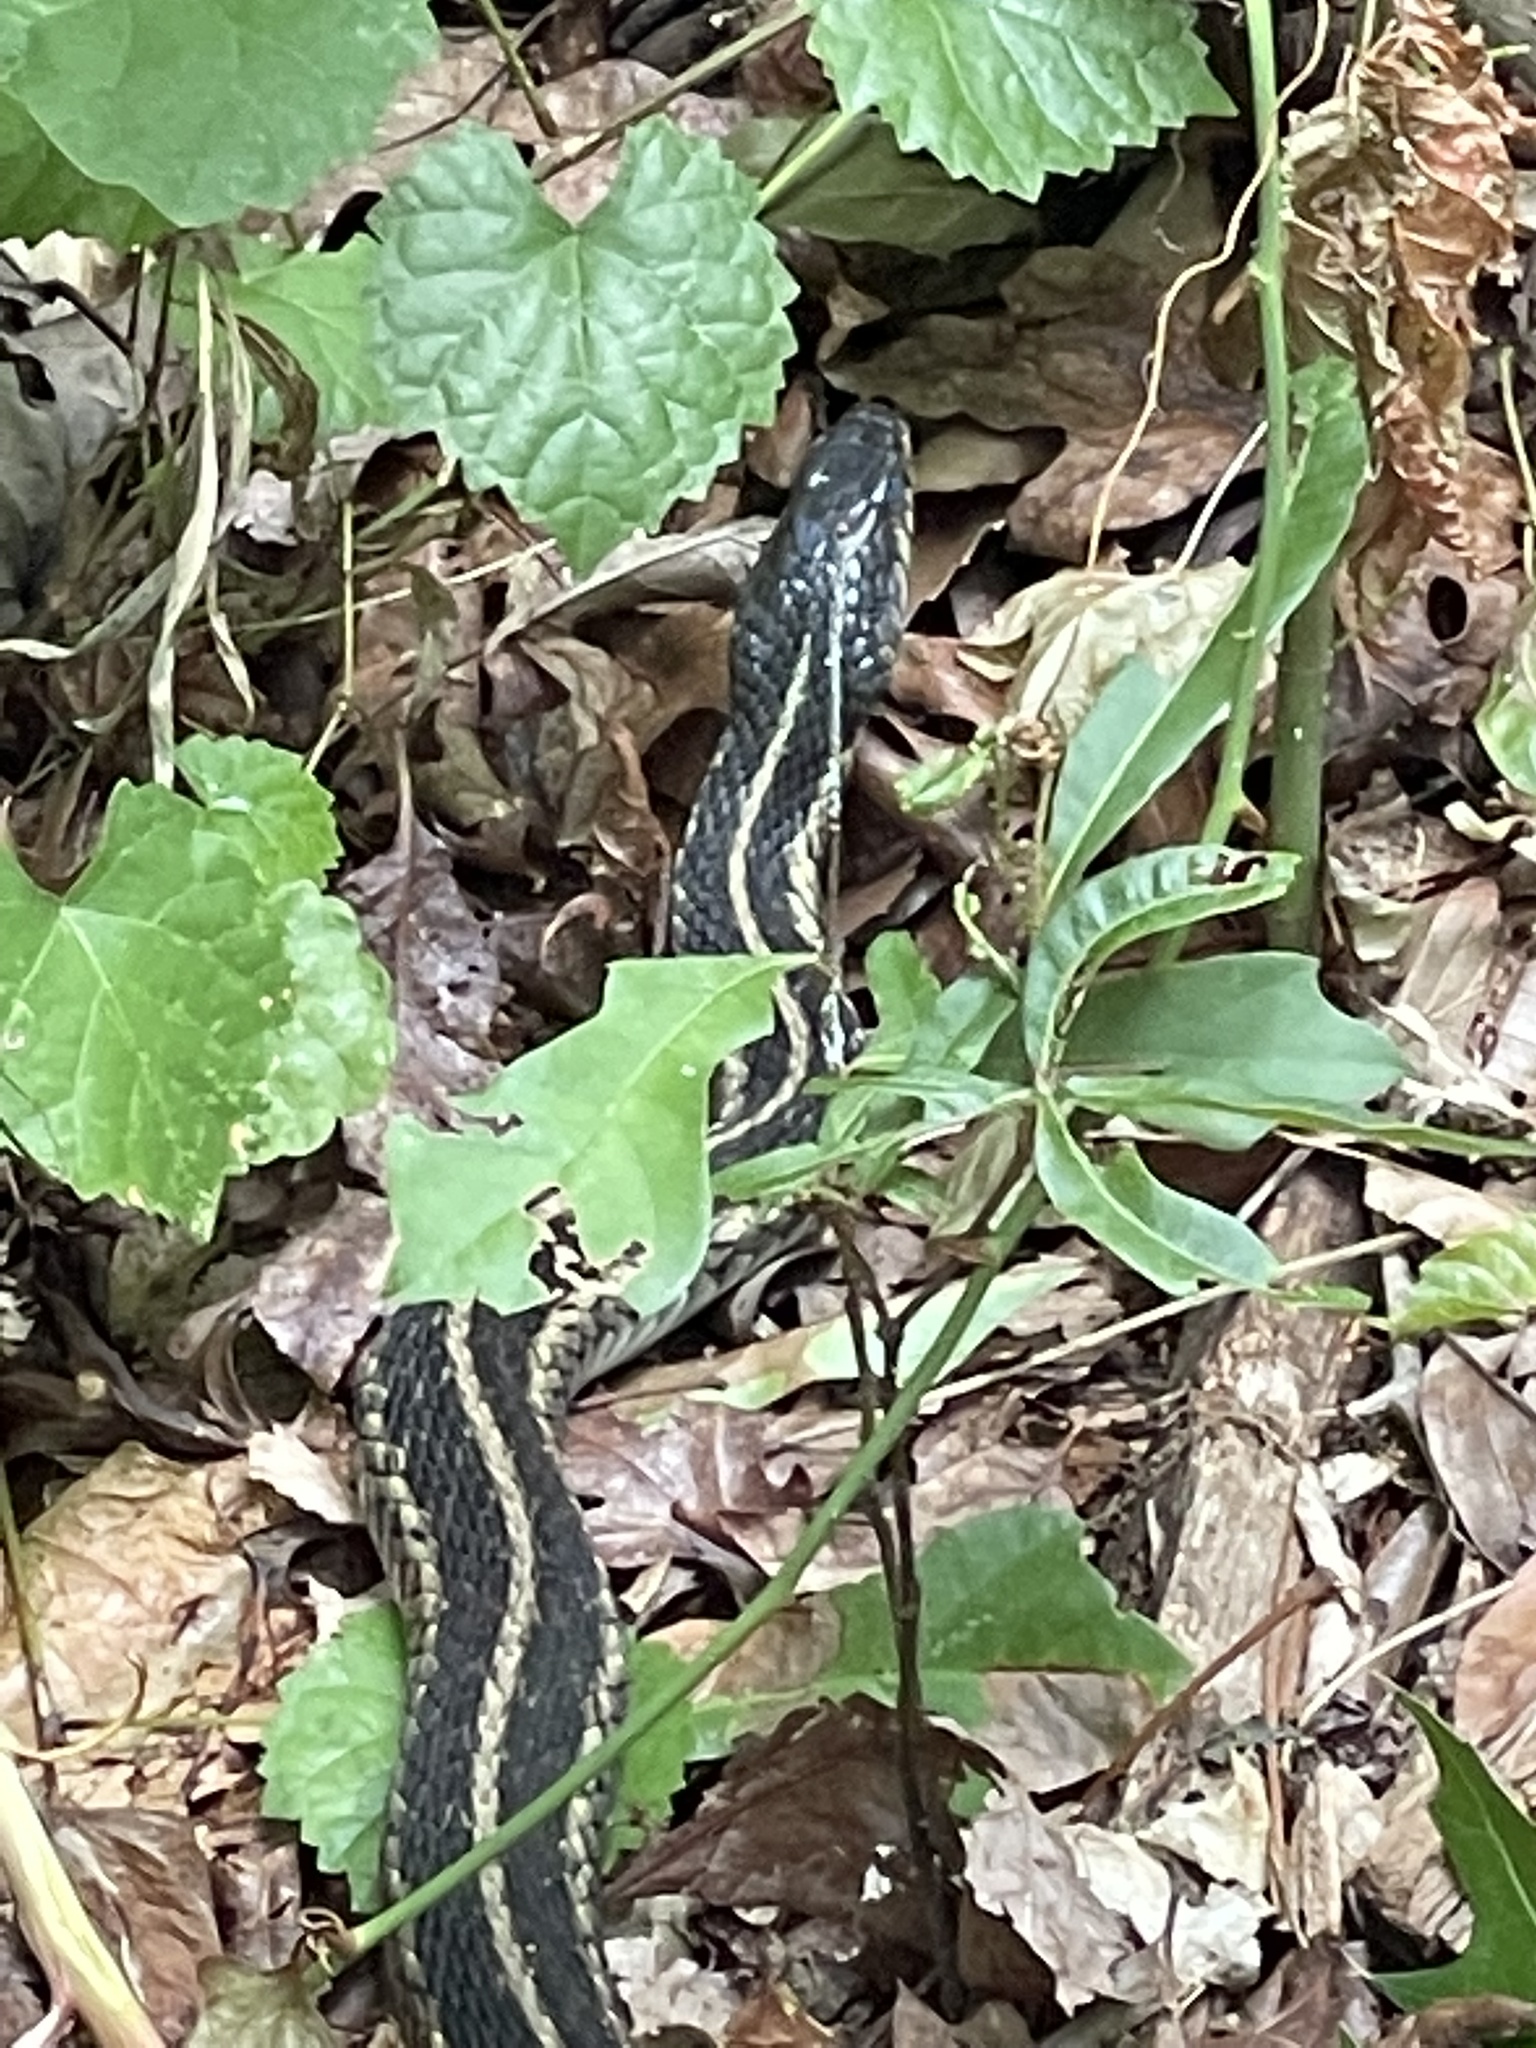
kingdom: Animalia
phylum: Chordata
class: Squamata
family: Colubridae
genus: Thamnophis
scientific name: Thamnophis sirtalis
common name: Common garter snake
